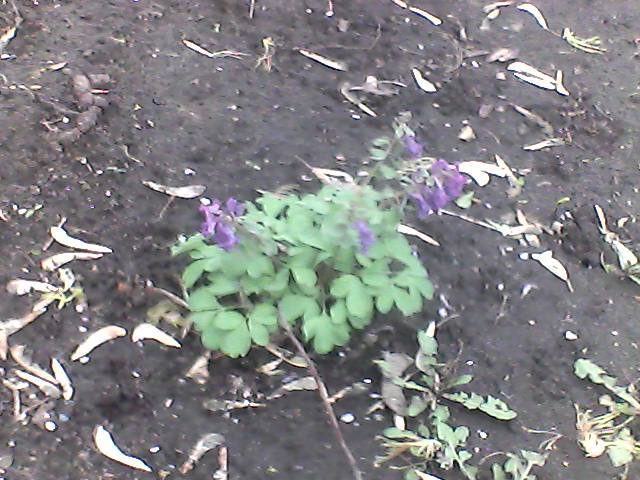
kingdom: Plantae
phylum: Tracheophyta
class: Magnoliopsida
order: Ranunculales
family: Papaveraceae
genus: Corydalis
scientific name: Corydalis solida
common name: Bird-in-a-bush
